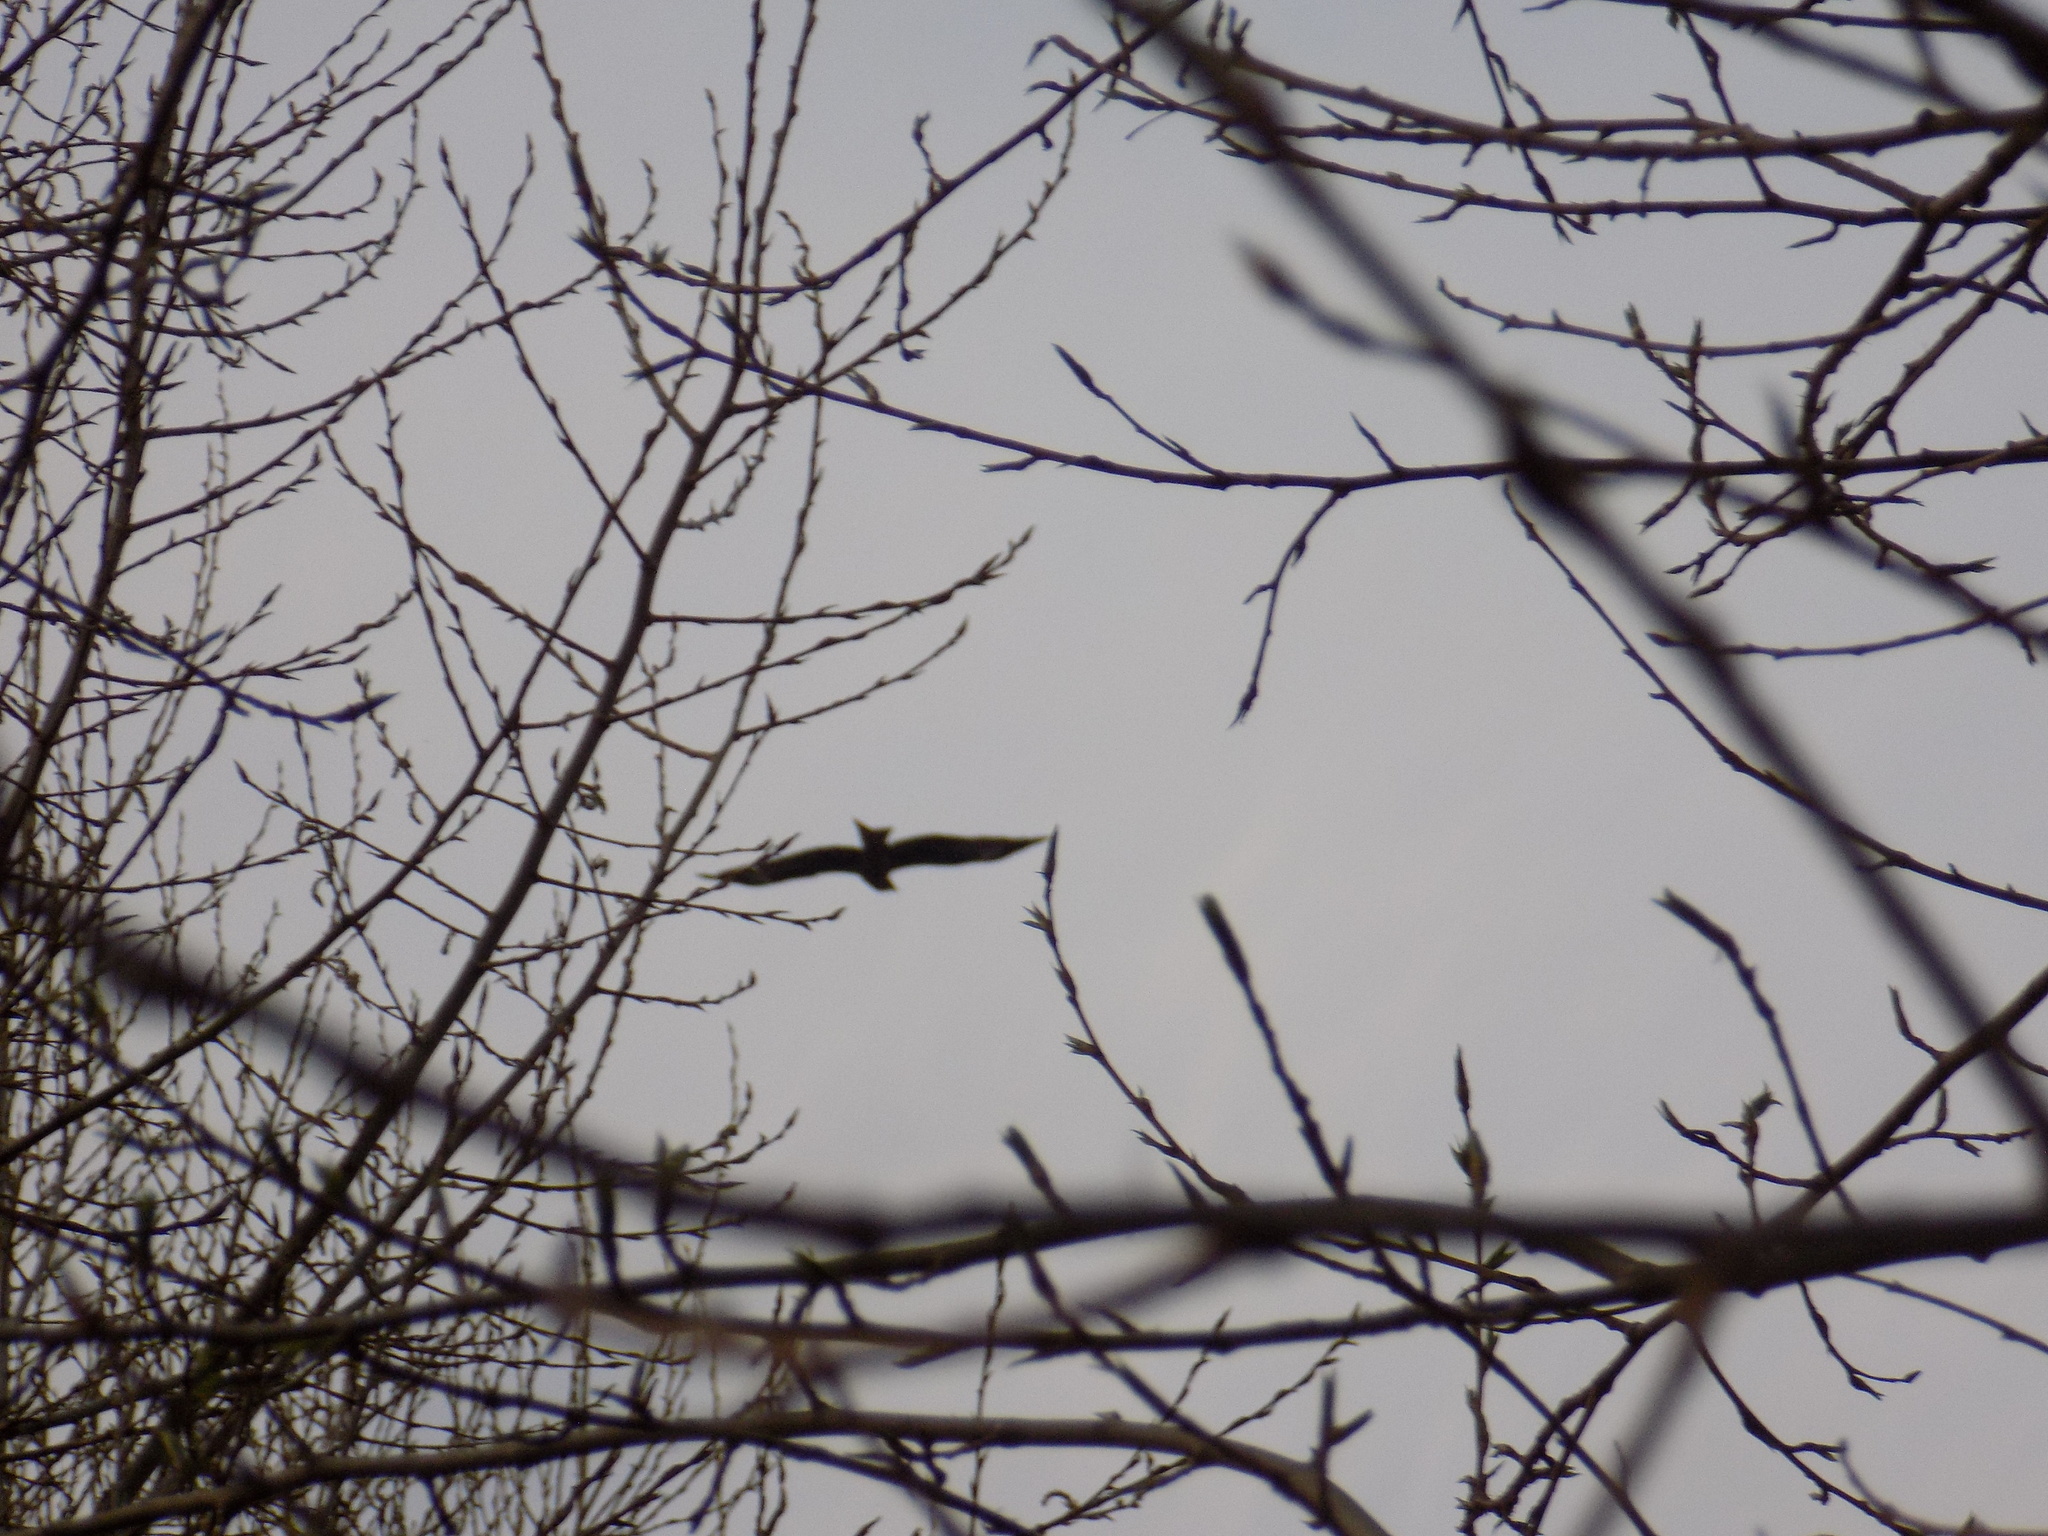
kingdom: Animalia
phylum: Chordata
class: Aves
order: Accipitriformes
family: Accipitridae
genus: Milvus
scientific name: Milvus migrans
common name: Black kite
